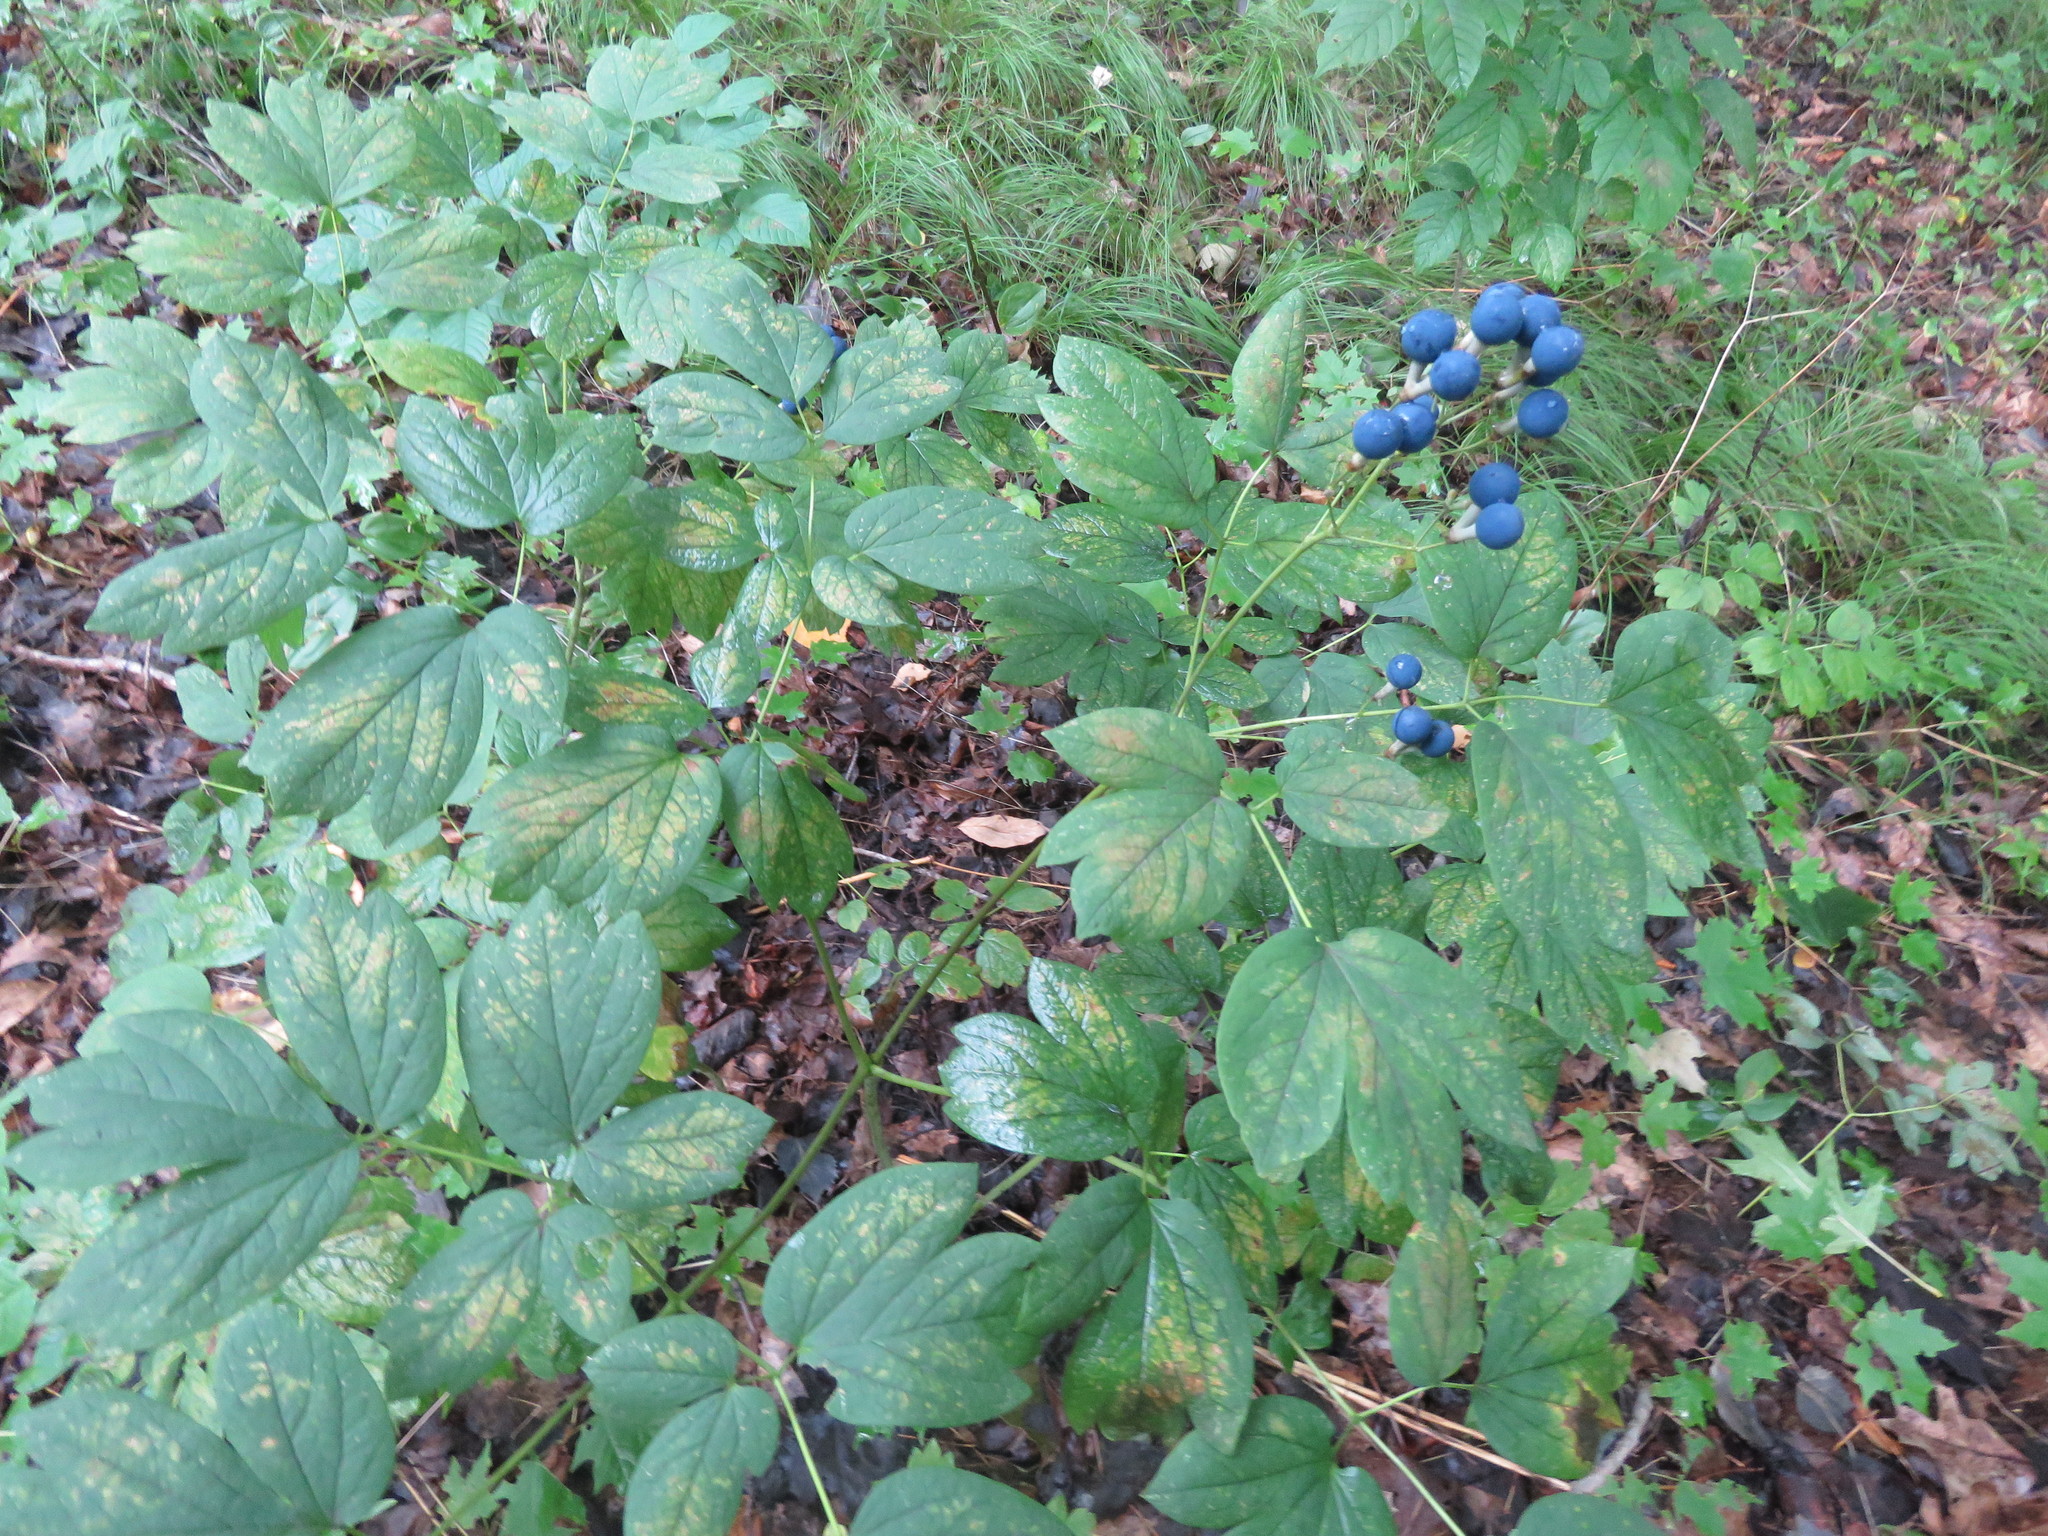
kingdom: Plantae
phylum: Tracheophyta
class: Magnoliopsida
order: Ranunculales
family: Berberidaceae
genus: Caulophyllum
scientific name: Caulophyllum thalictroides
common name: Blue cohosh
